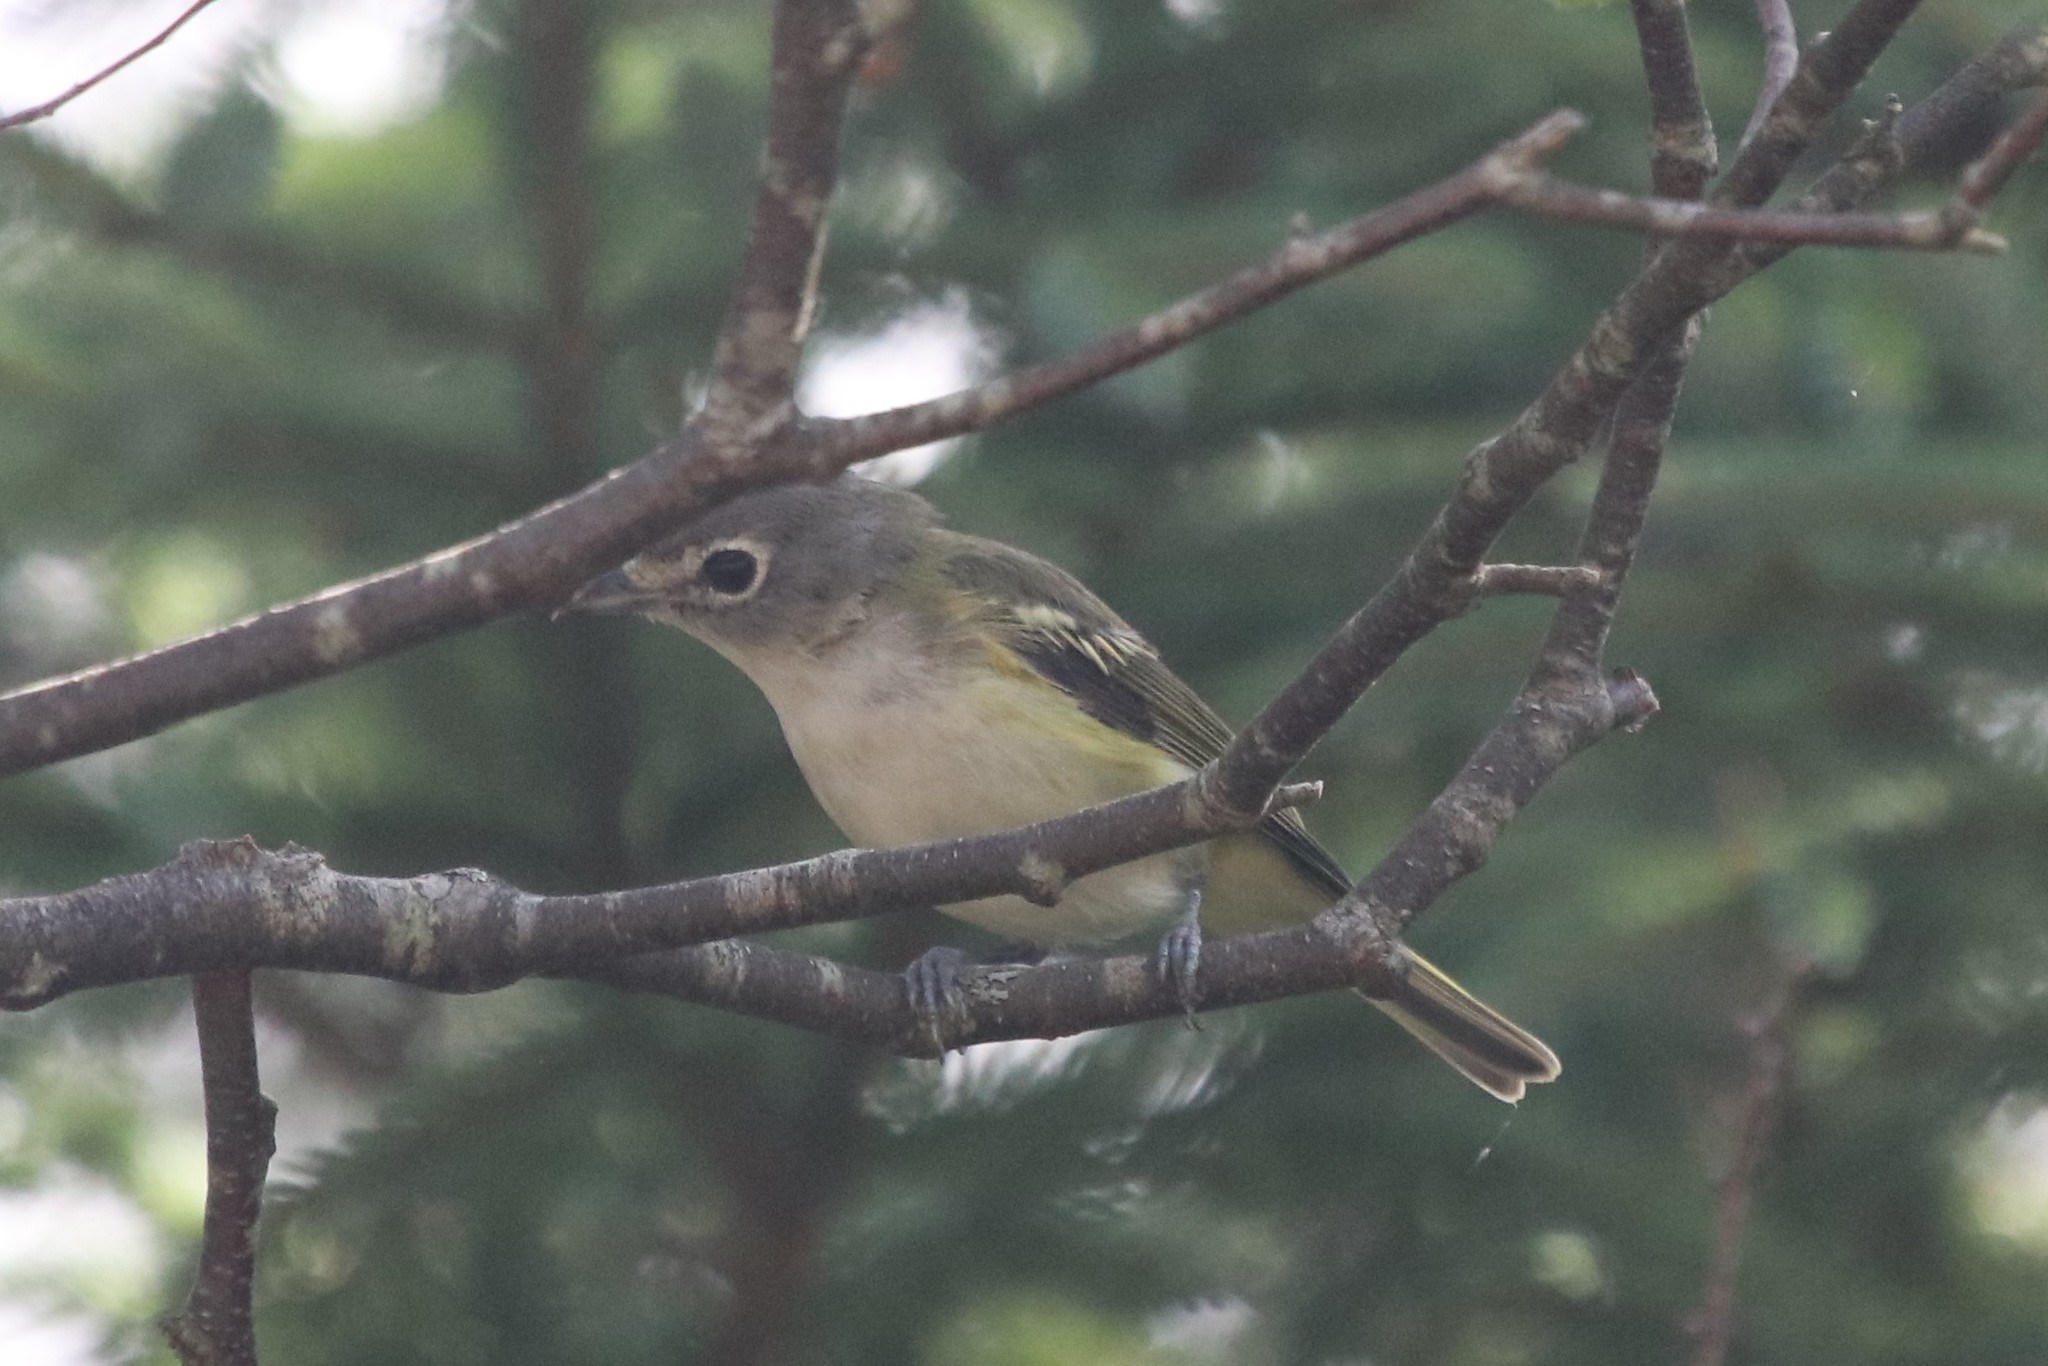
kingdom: Animalia
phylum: Chordata
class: Aves
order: Passeriformes
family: Vireonidae
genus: Vireo
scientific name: Vireo solitarius
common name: Blue-headed vireo
